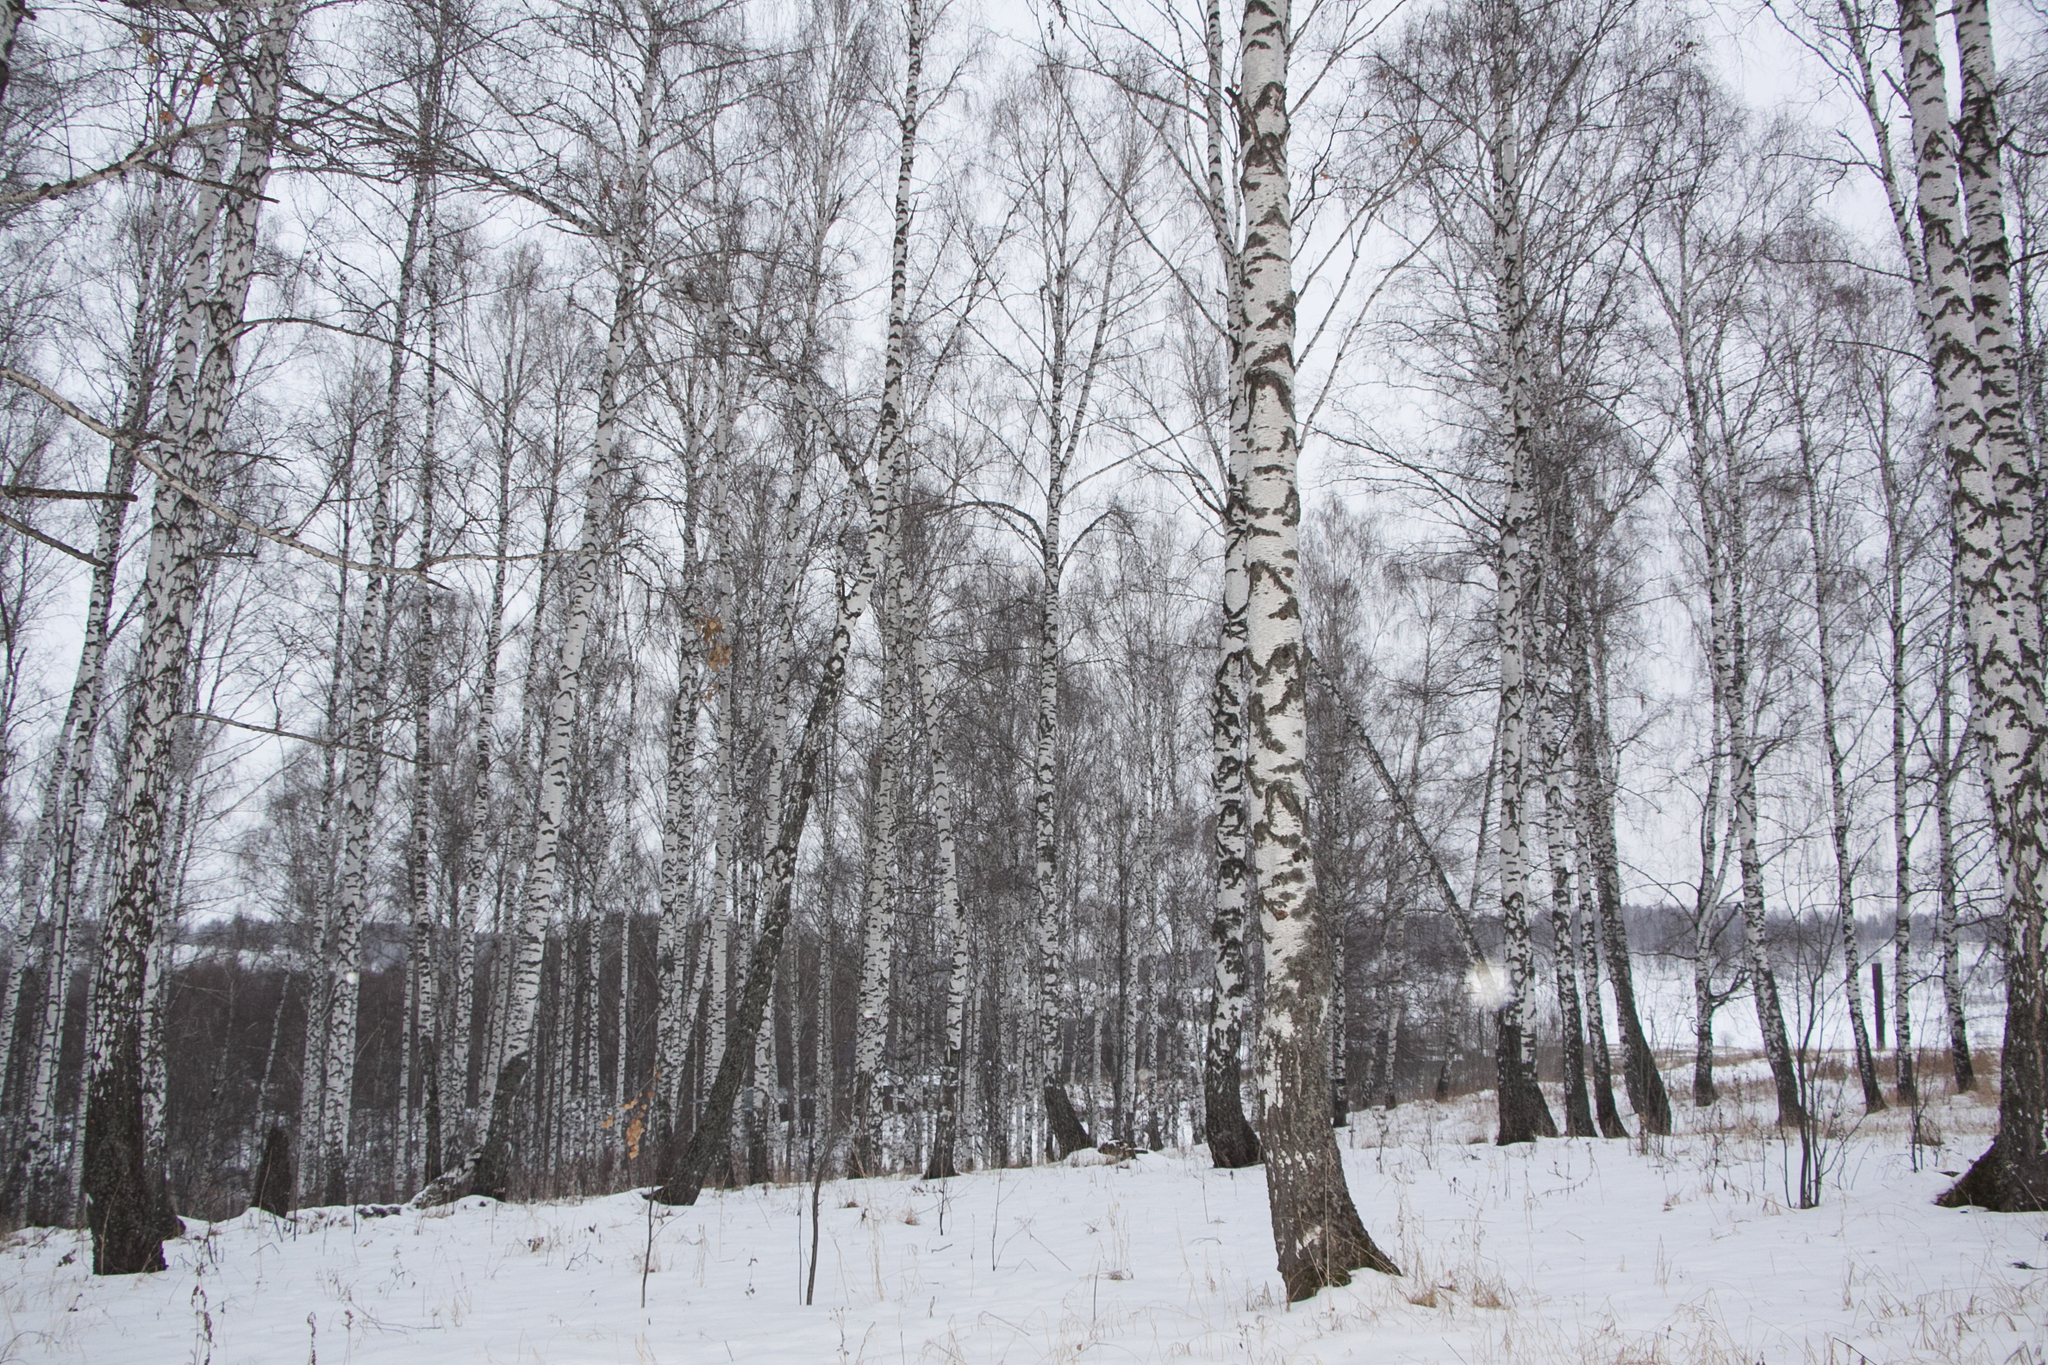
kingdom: Plantae
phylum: Tracheophyta
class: Magnoliopsida
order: Fagales
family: Betulaceae
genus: Betula
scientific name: Betula pendula
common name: Silver birch
